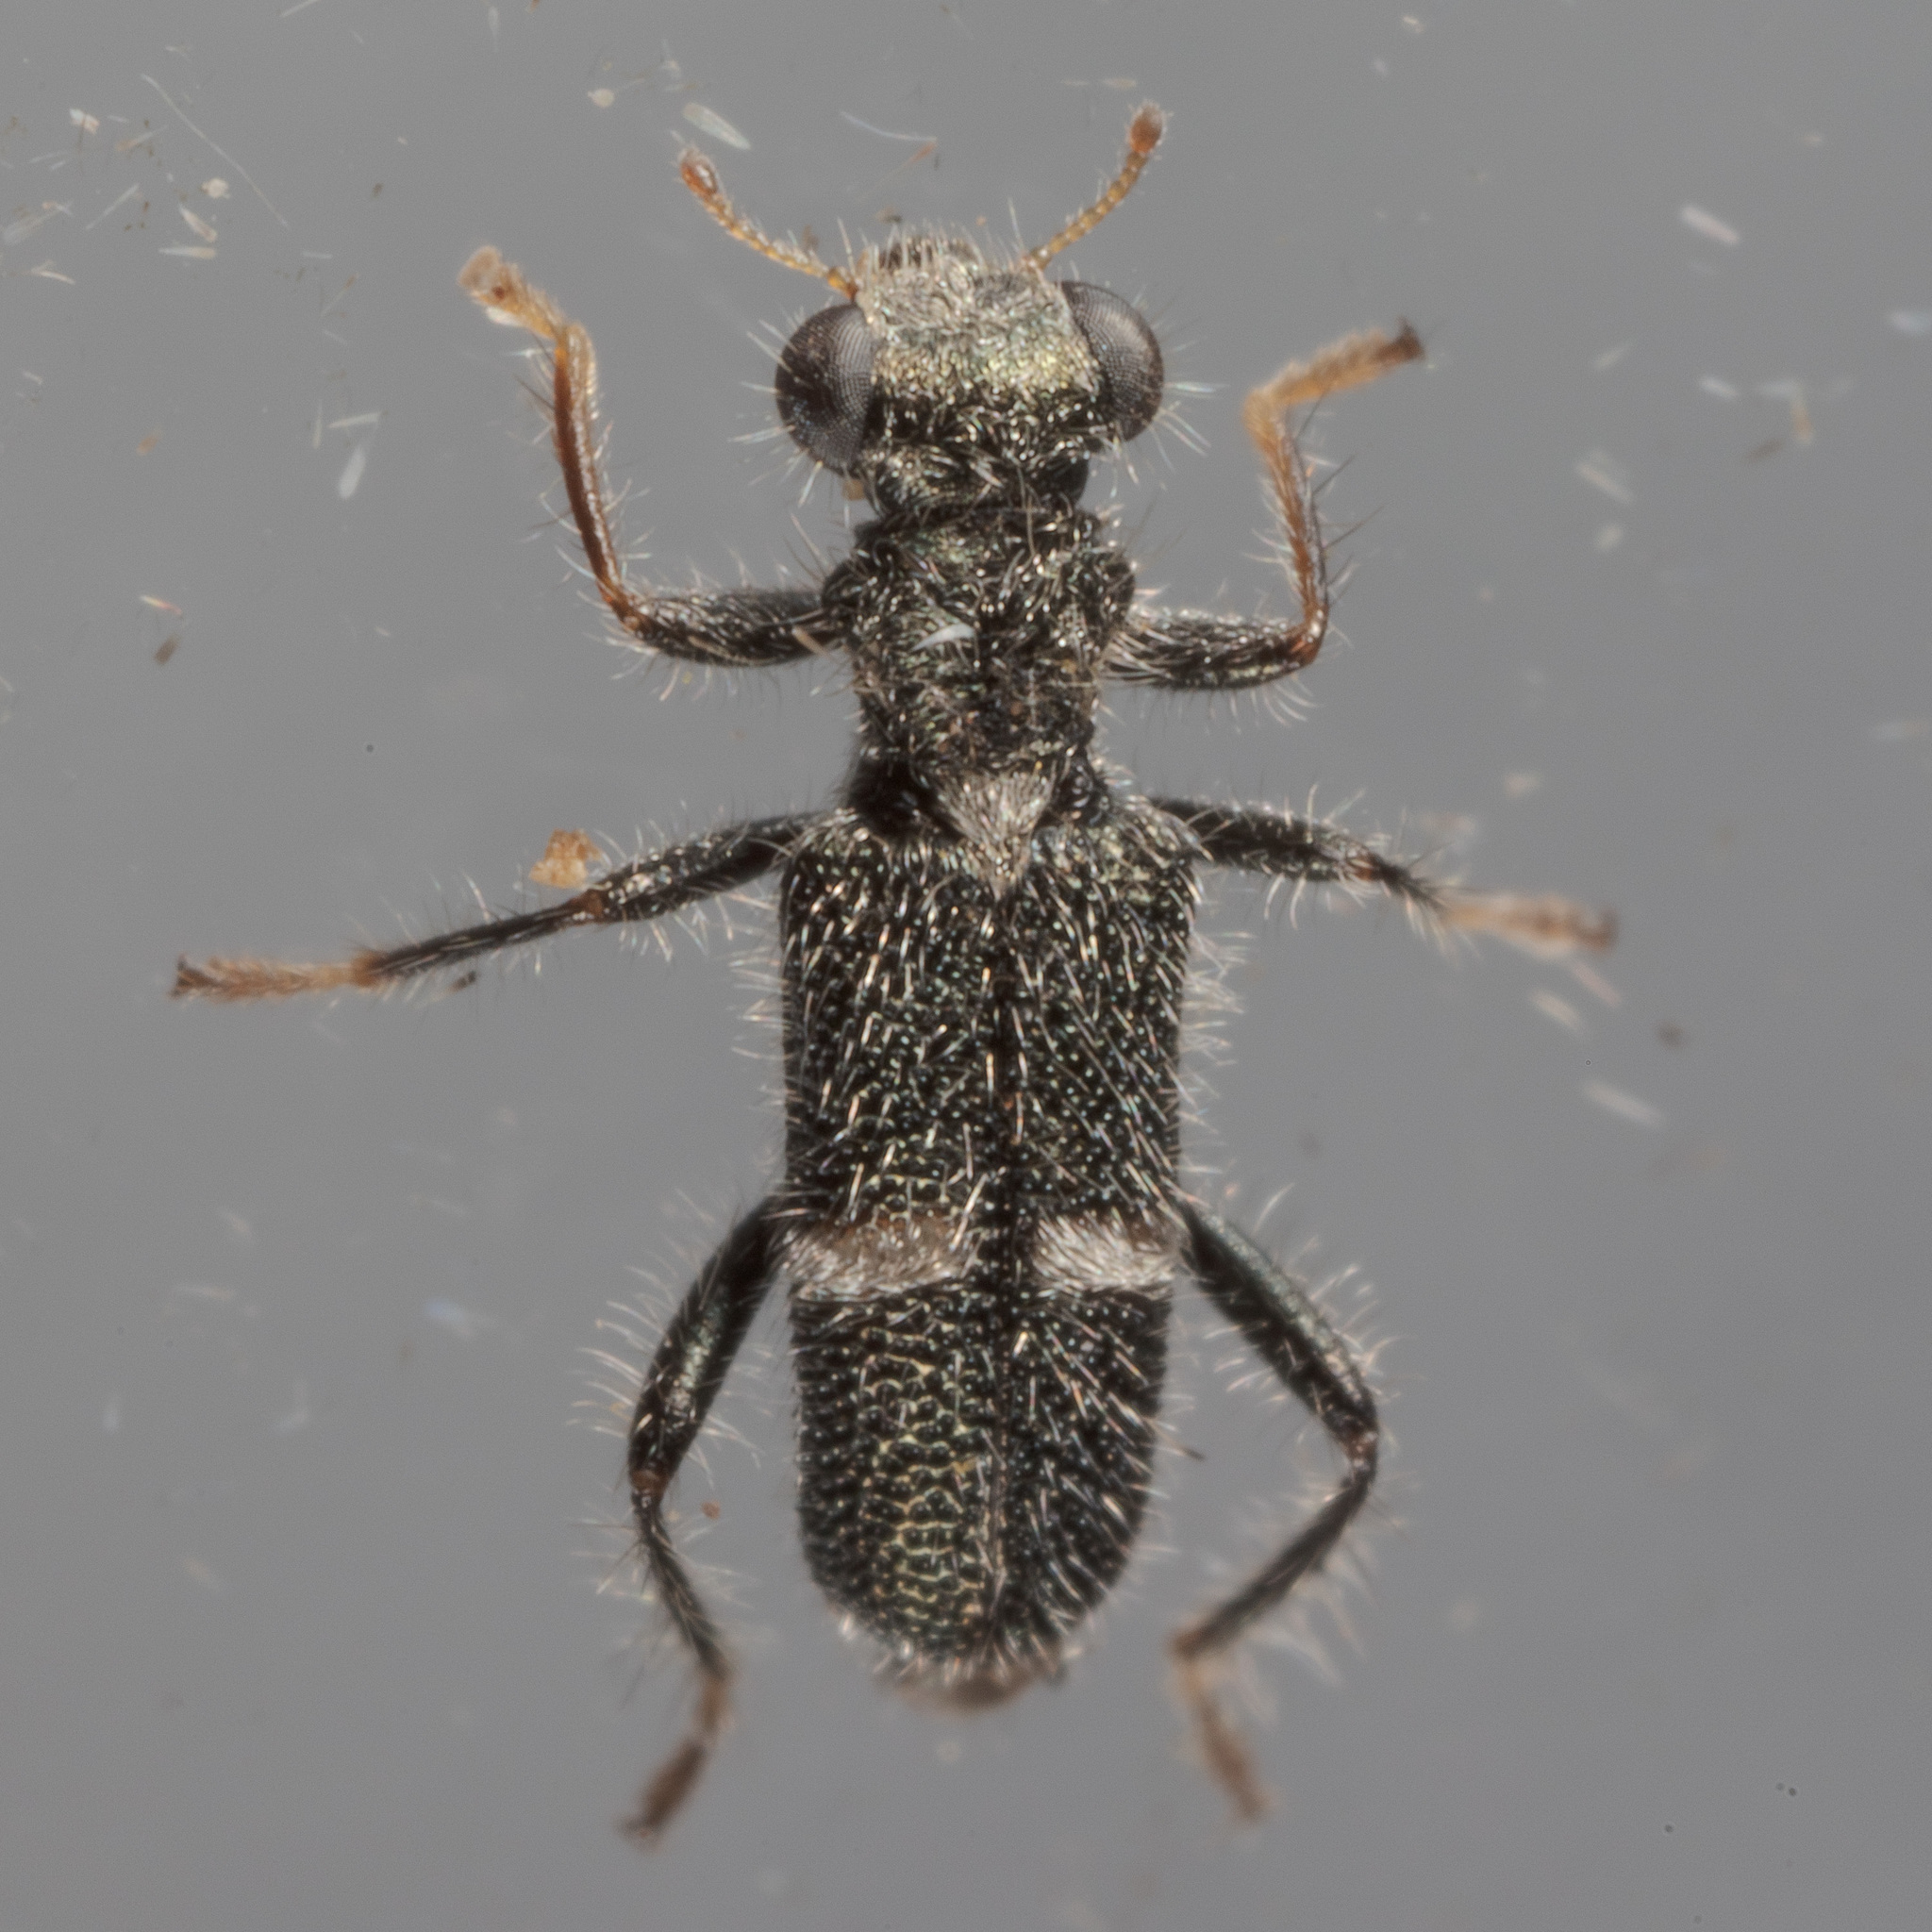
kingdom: Animalia
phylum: Arthropoda
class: Insecta
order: Coleoptera
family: Cleridae
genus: Phyllobaenus
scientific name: Phyllobaenus unifasciatus
